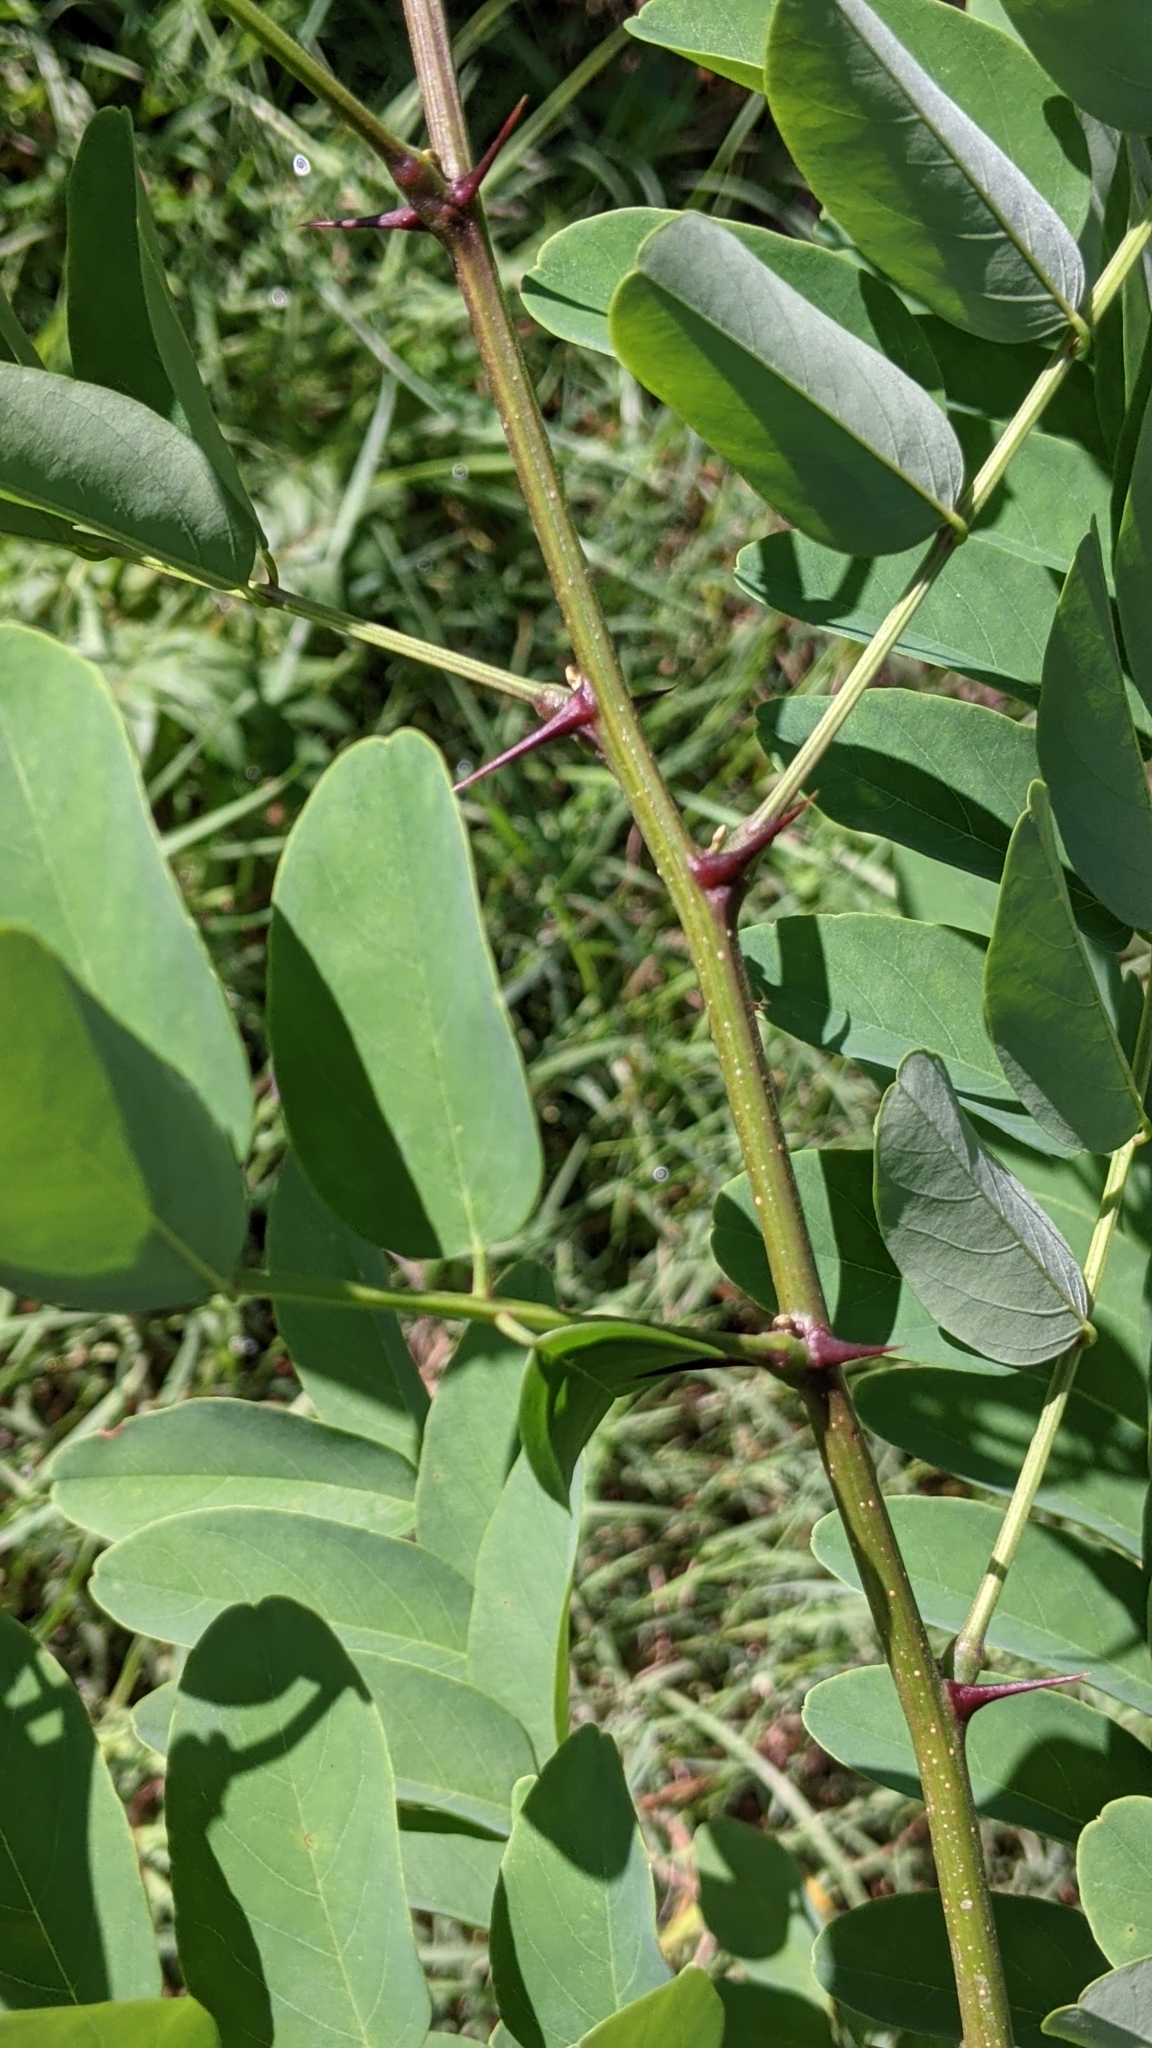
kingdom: Plantae
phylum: Tracheophyta
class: Magnoliopsida
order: Fabales
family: Fabaceae
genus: Robinia
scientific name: Robinia pseudoacacia
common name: Black locust
